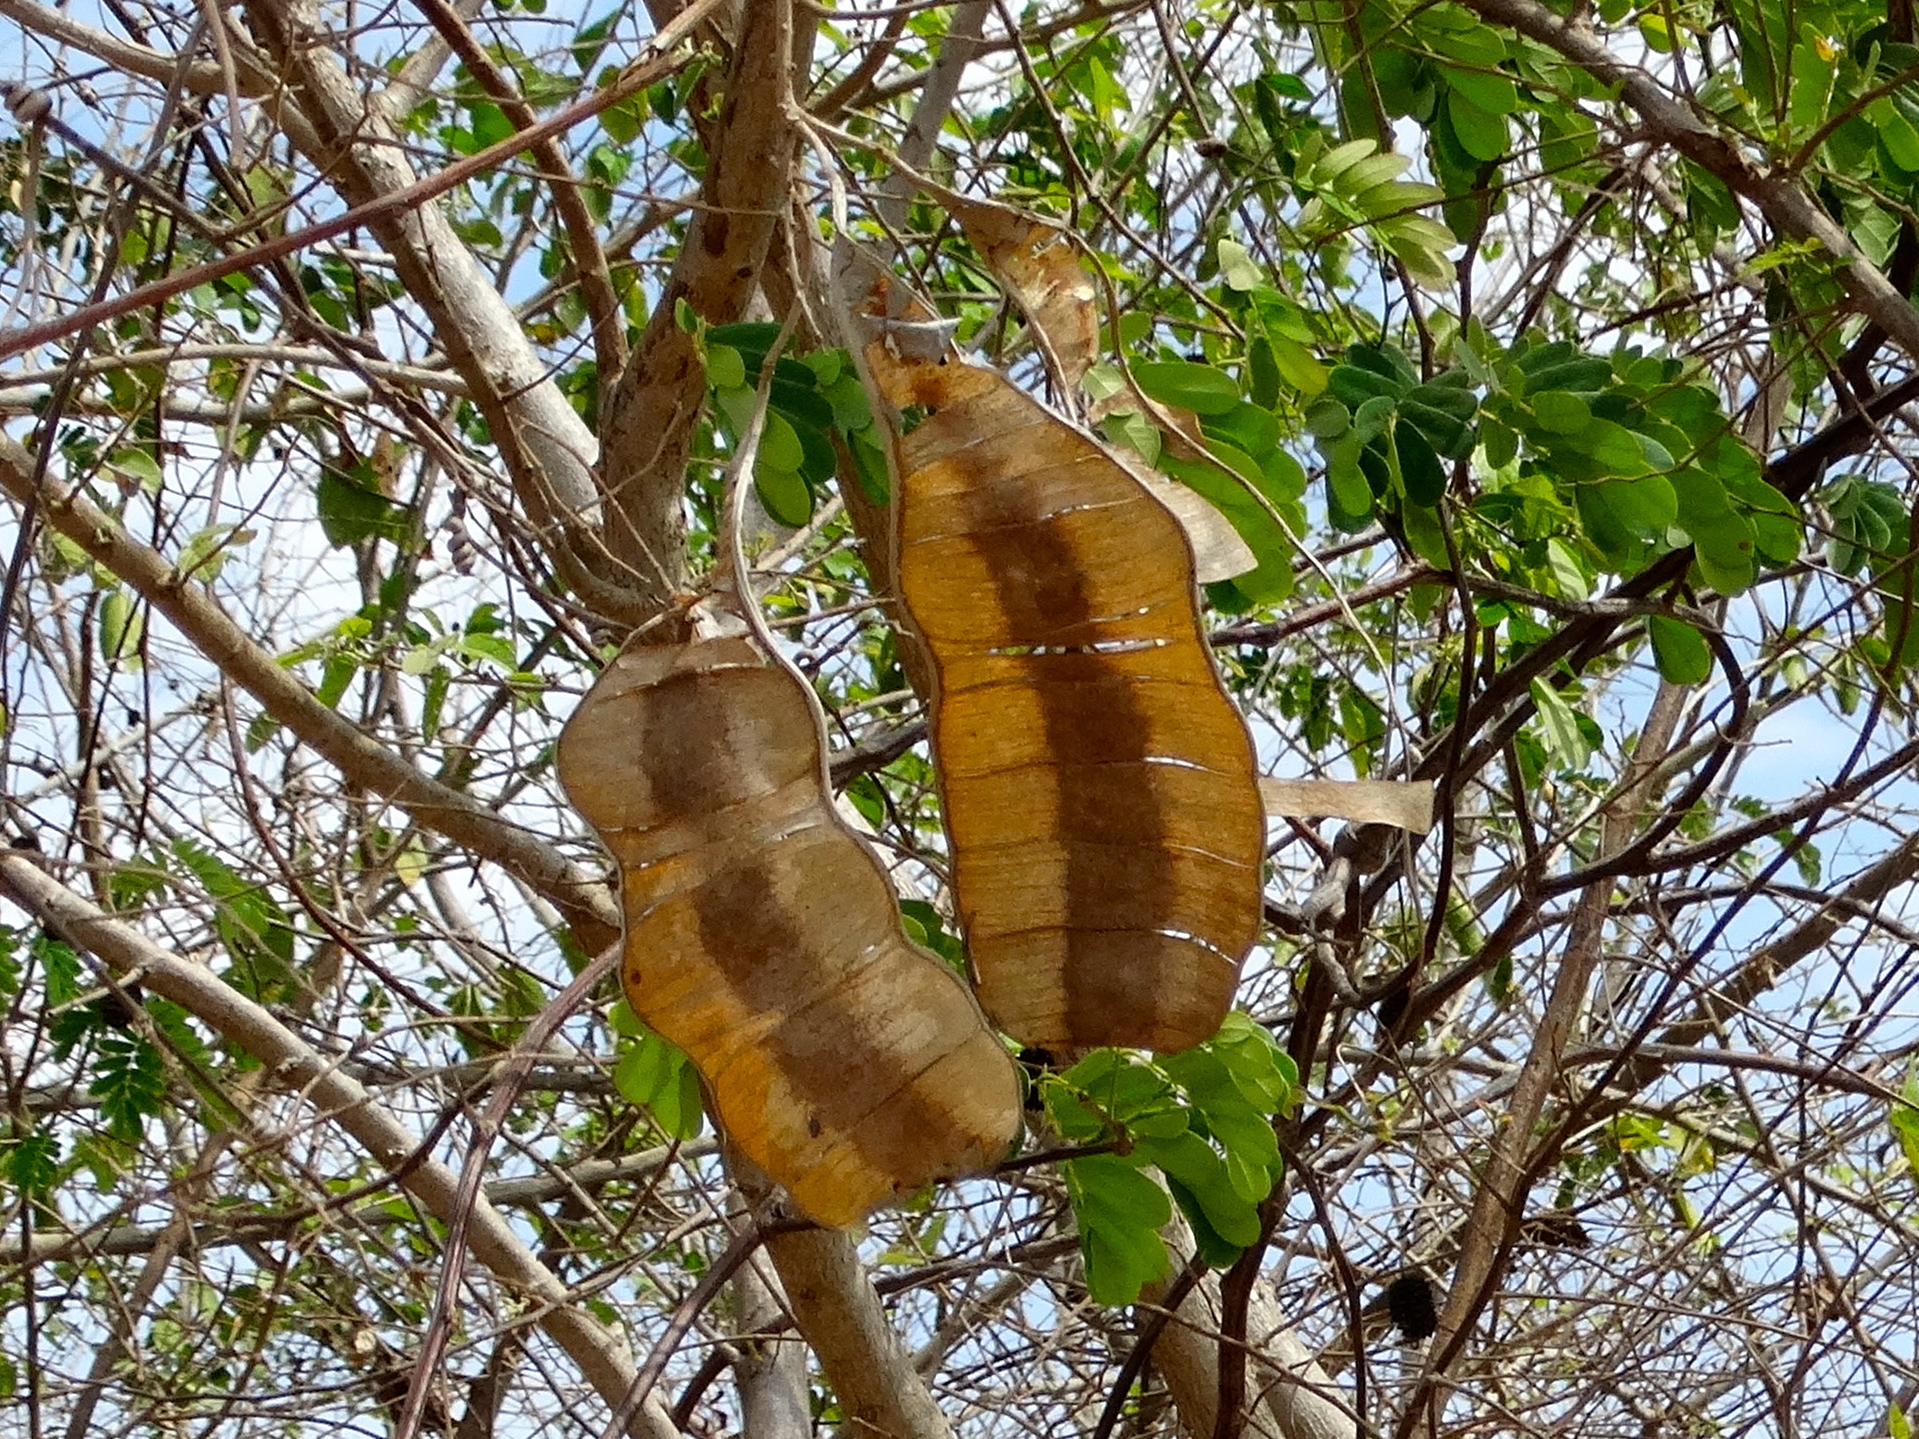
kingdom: Plantae
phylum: Tracheophyta
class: Magnoliopsida
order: Fabales
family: Fabaceae
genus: Entada
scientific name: Entada polystachya
